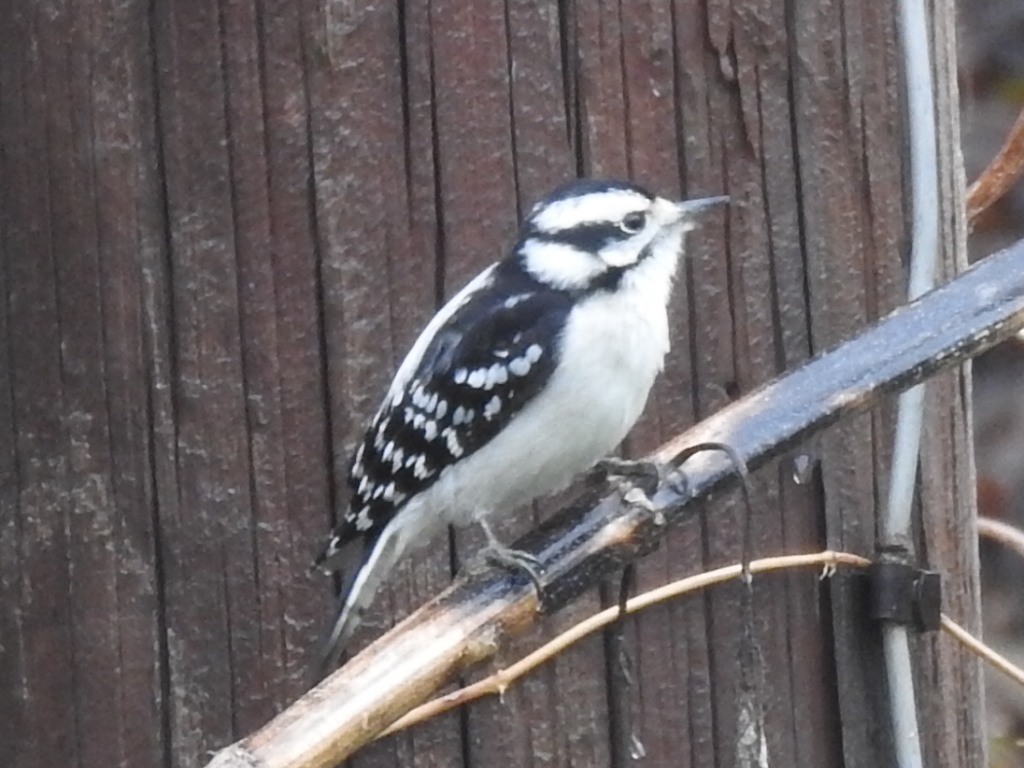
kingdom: Animalia
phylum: Chordata
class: Aves
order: Piciformes
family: Picidae
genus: Dryobates
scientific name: Dryobates pubescens
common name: Downy woodpecker
